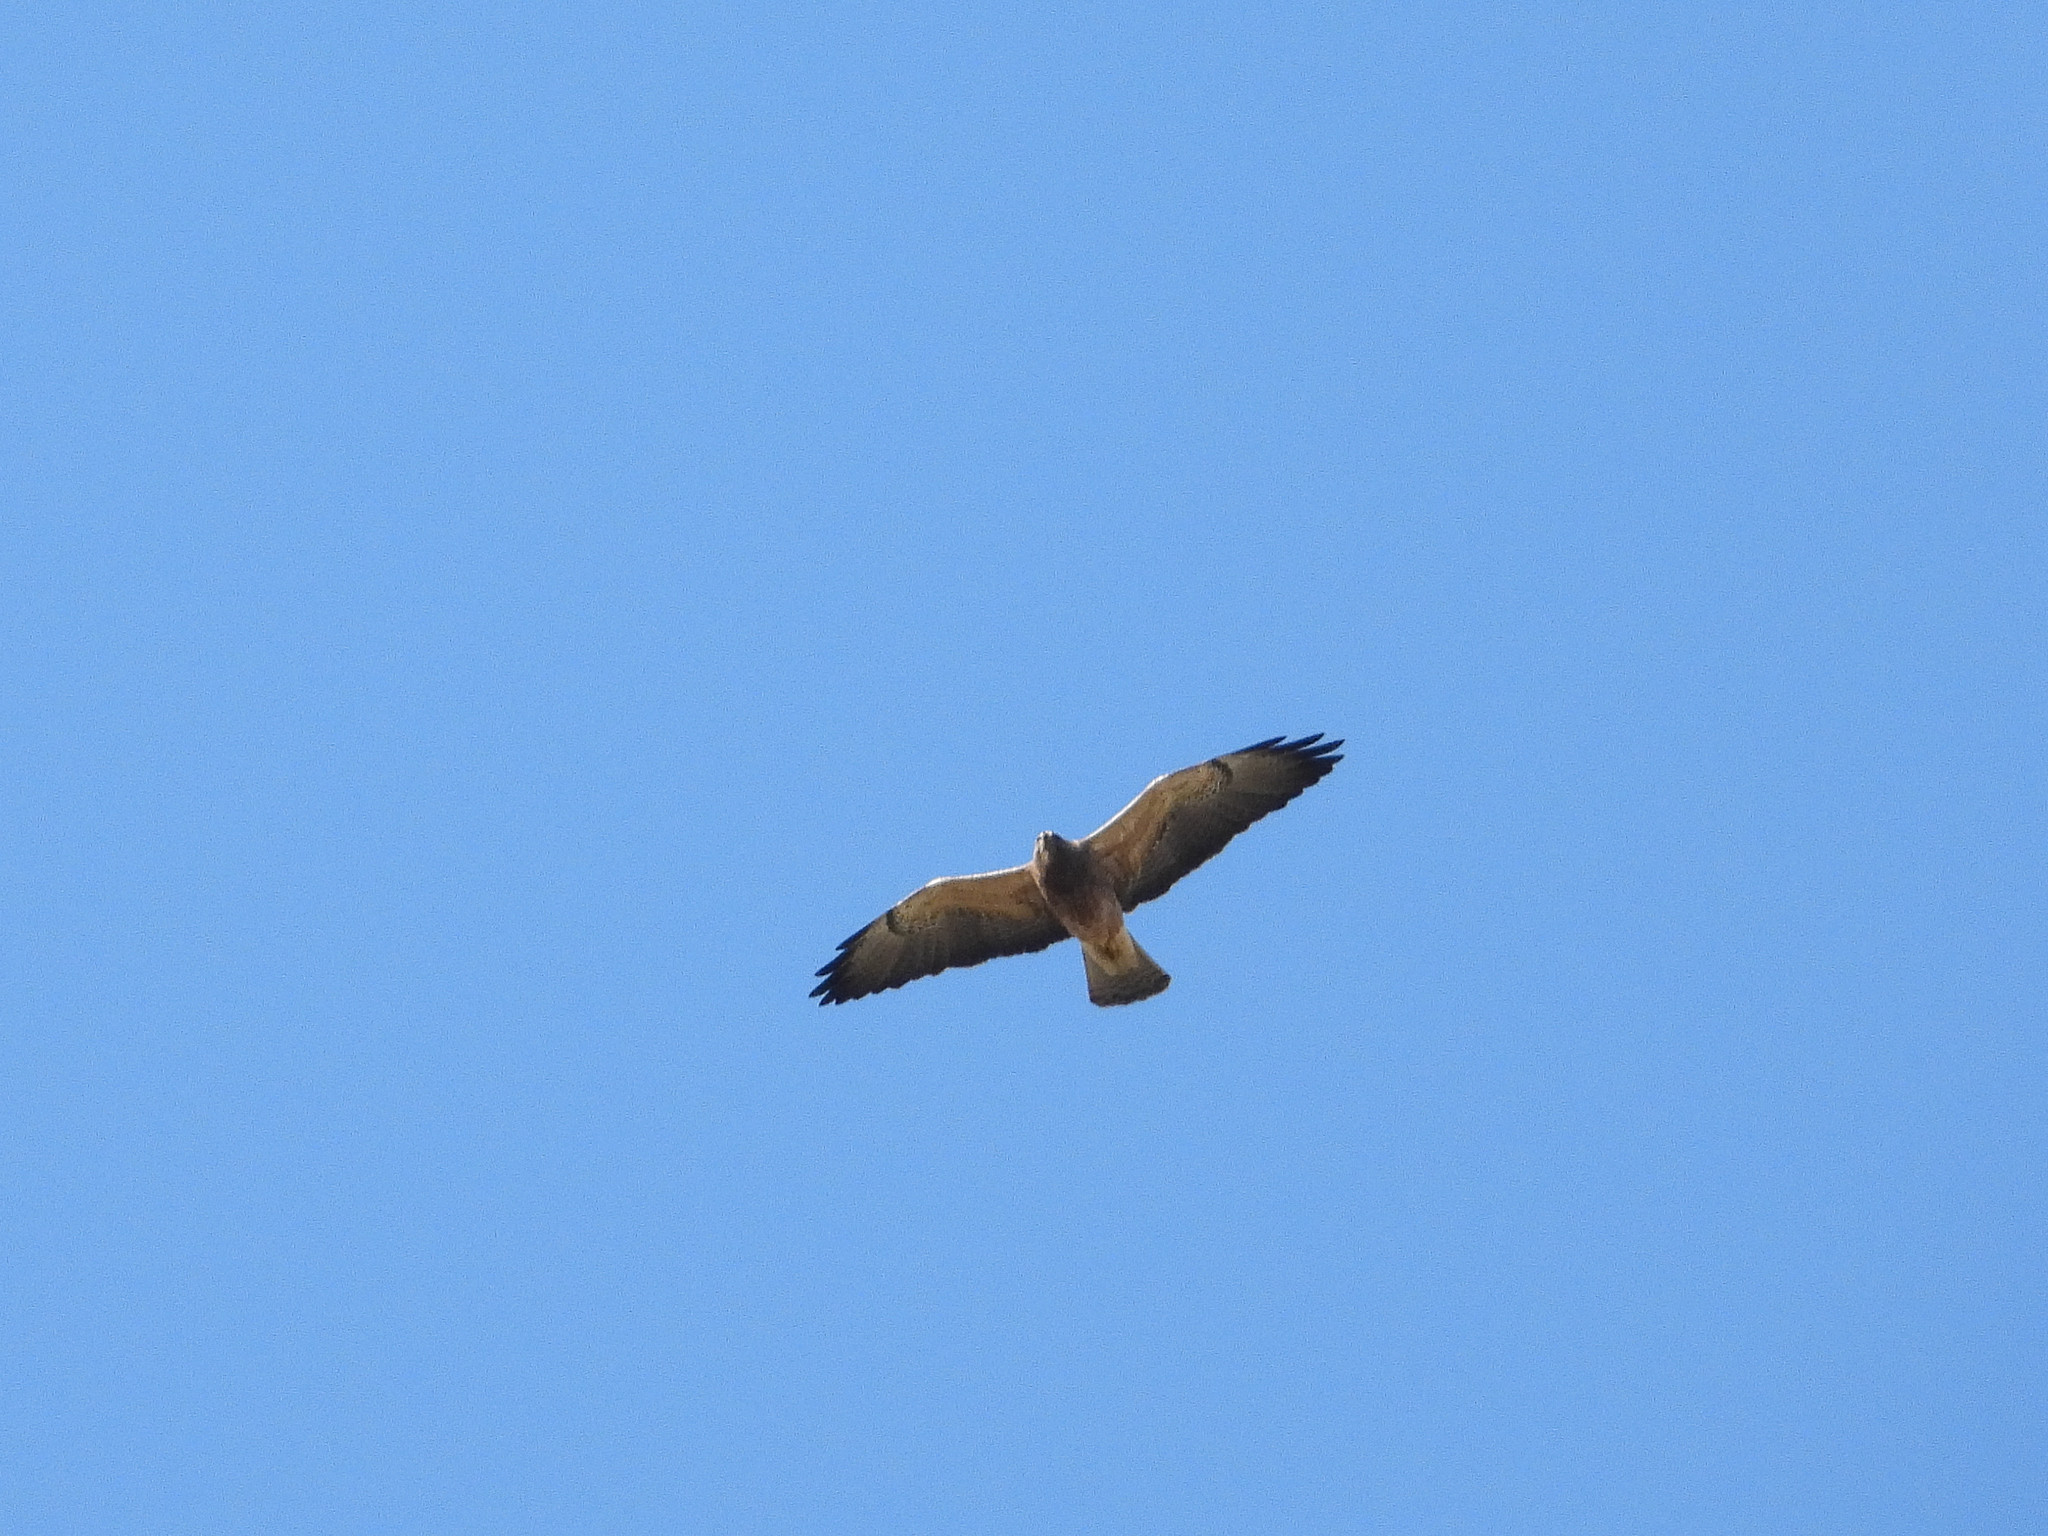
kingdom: Animalia
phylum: Chordata
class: Aves
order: Accipitriformes
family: Accipitridae
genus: Buteo
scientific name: Buteo swainsoni
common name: Swainson's hawk
